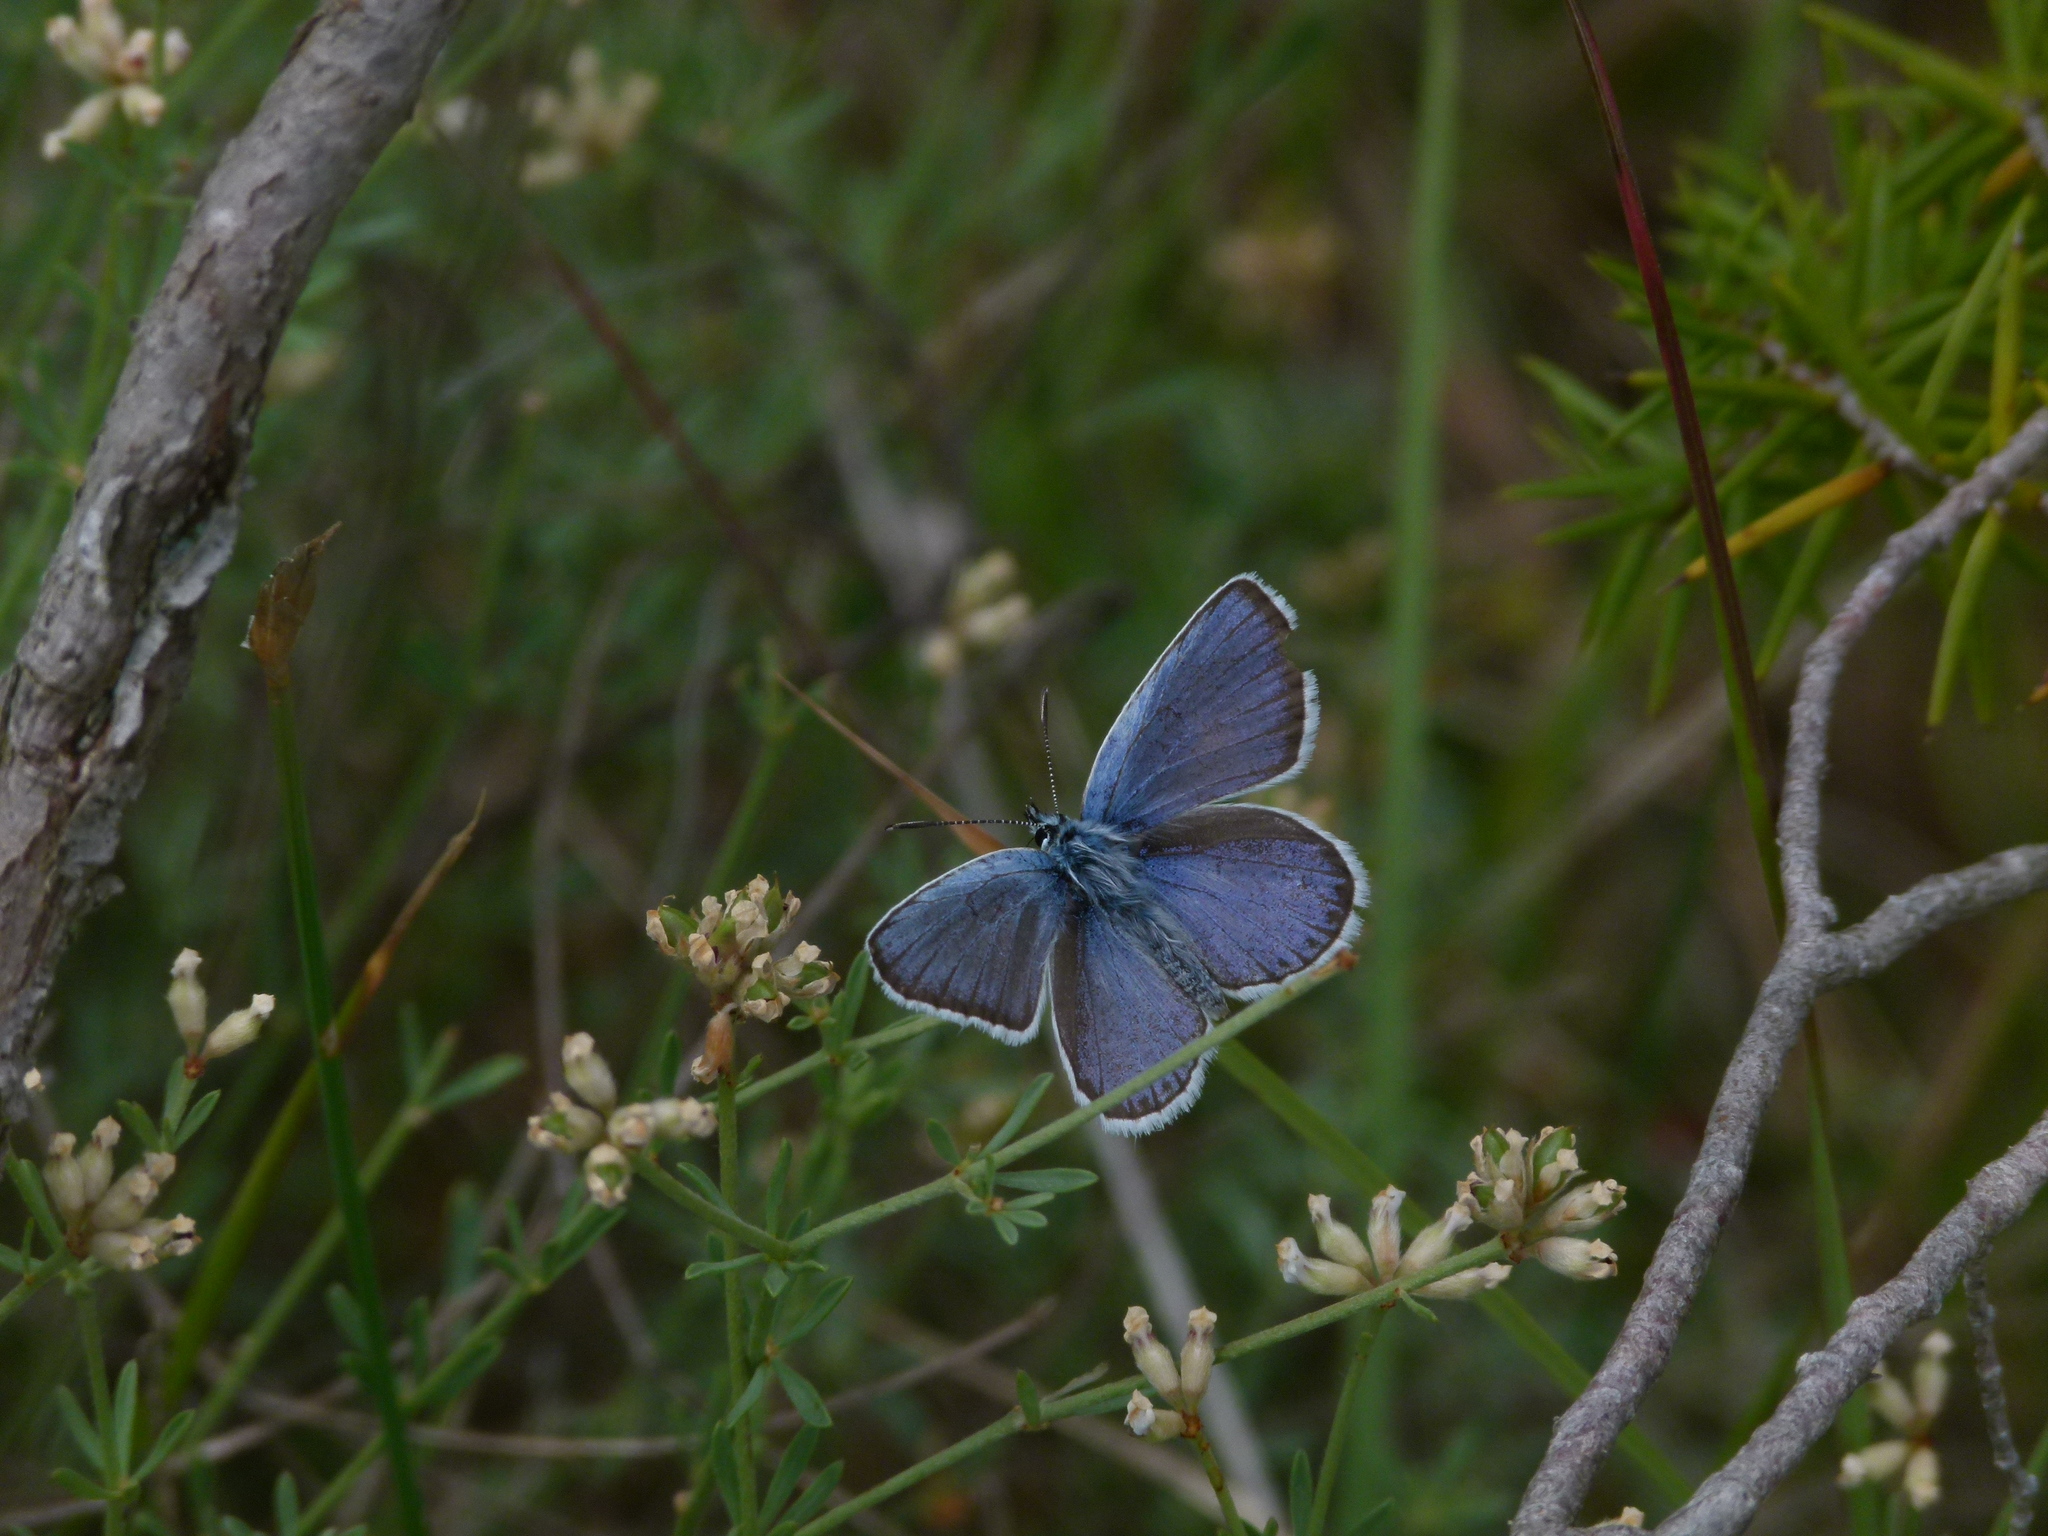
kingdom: Animalia
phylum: Arthropoda
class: Insecta
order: Lepidoptera
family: Lycaenidae
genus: Plebejus
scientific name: Plebejus argus
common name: Silver-studded blue
